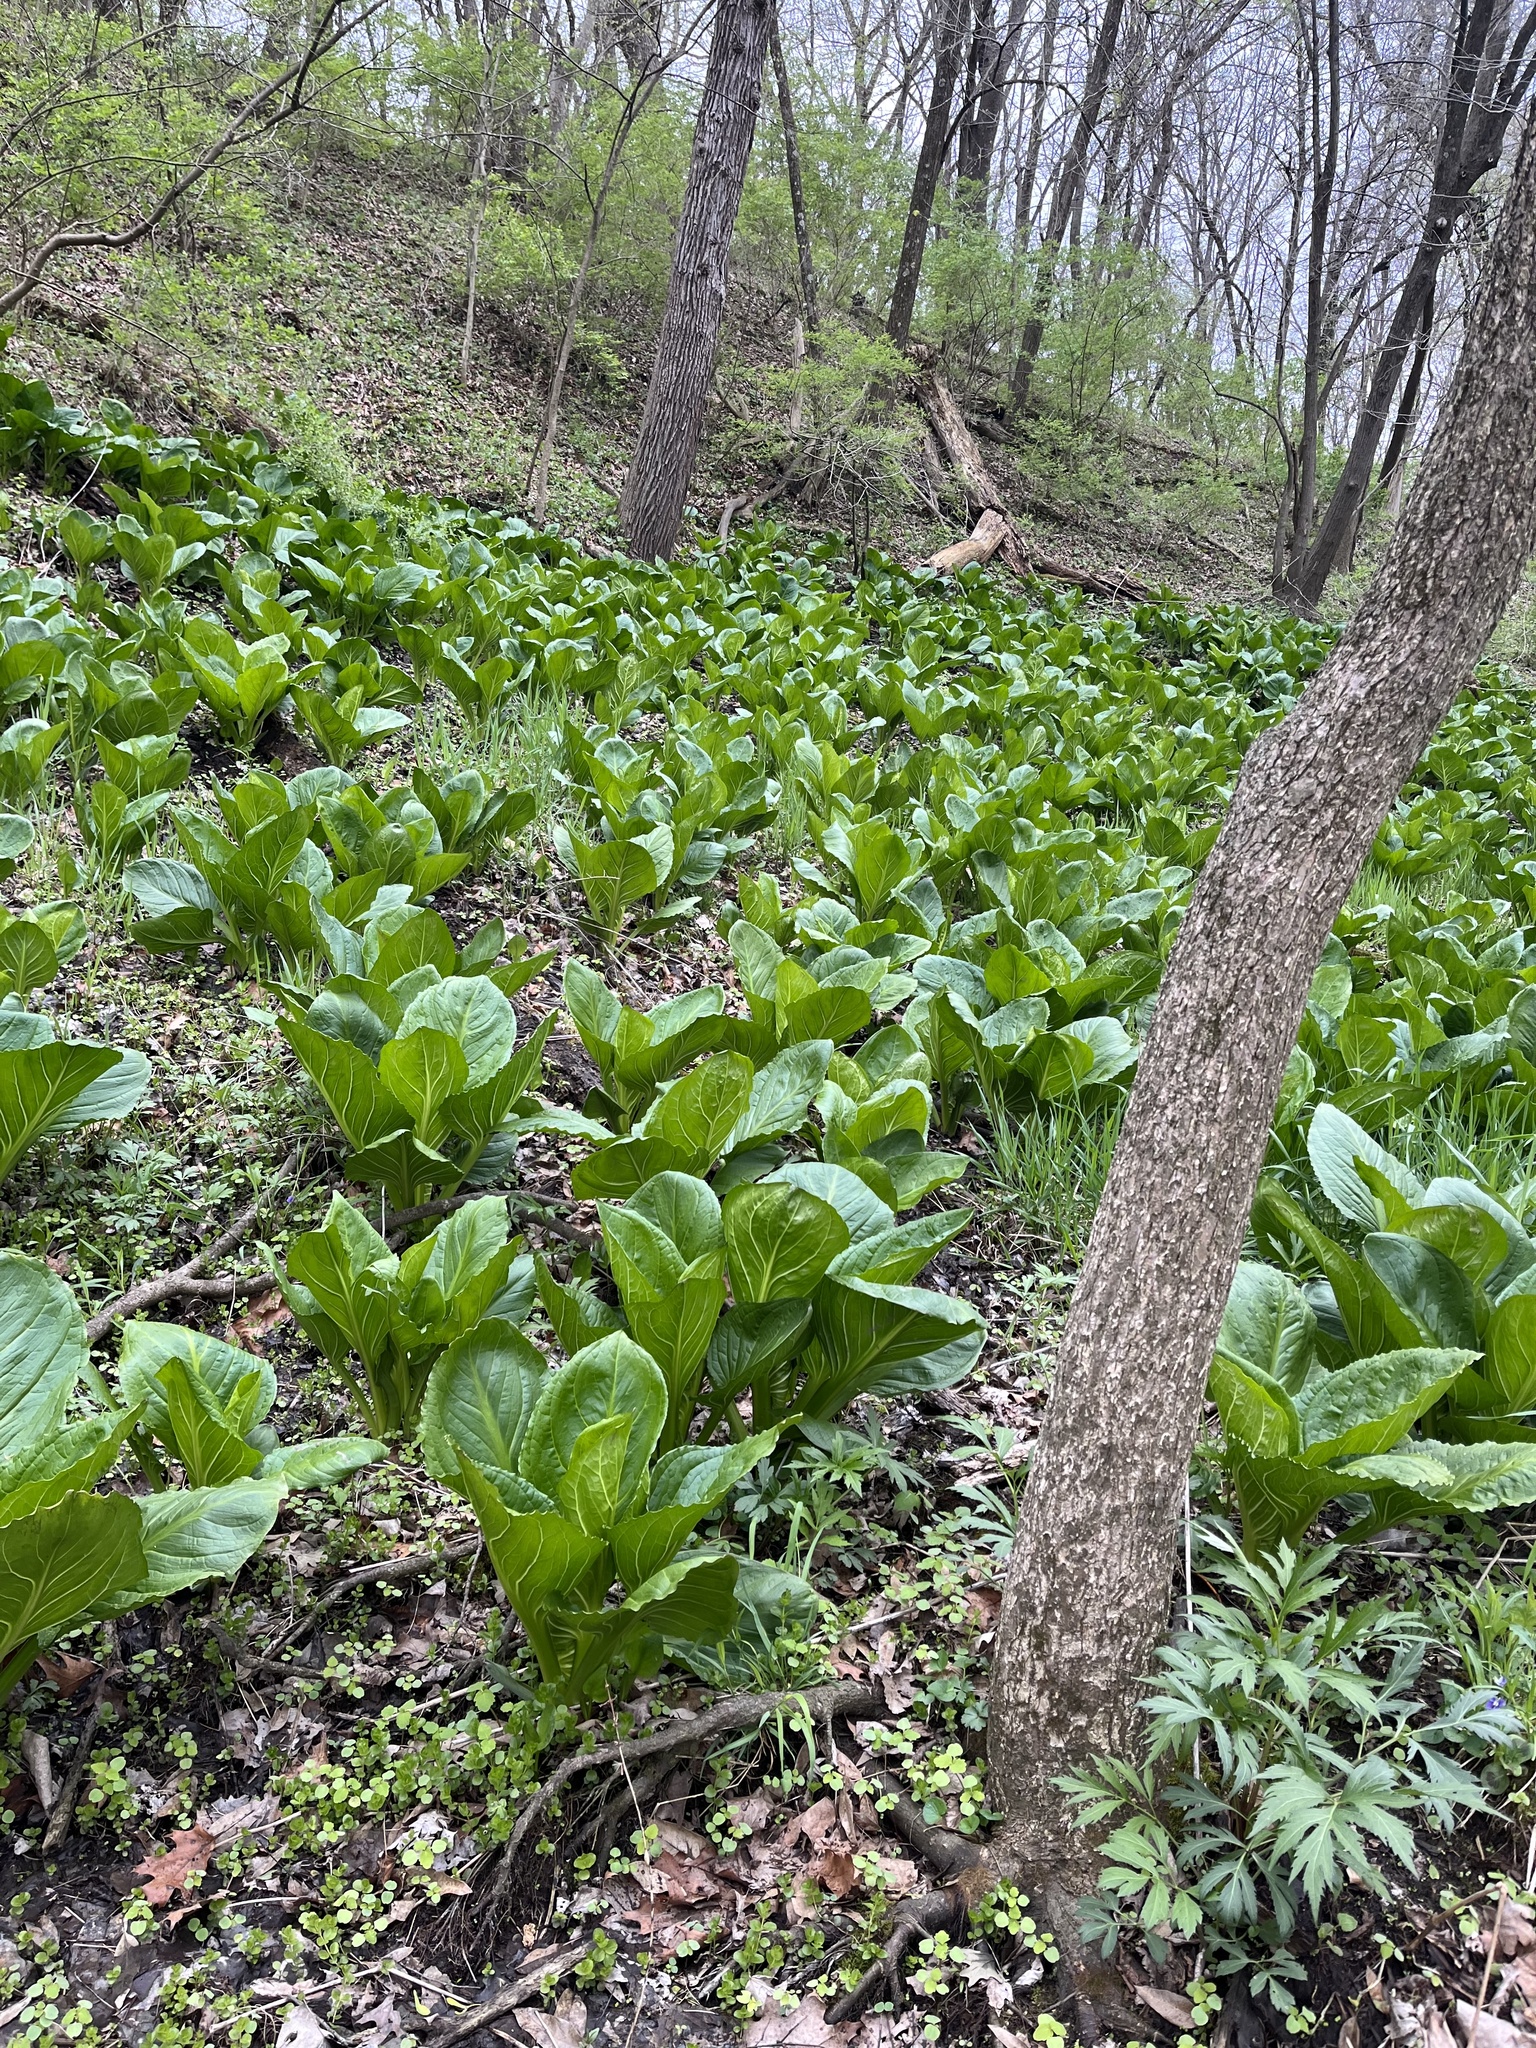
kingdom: Plantae
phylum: Tracheophyta
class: Liliopsida
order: Alismatales
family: Araceae
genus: Symplocarpus
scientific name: Symplocarpus foetidus
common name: Eastern skunk cabbage
